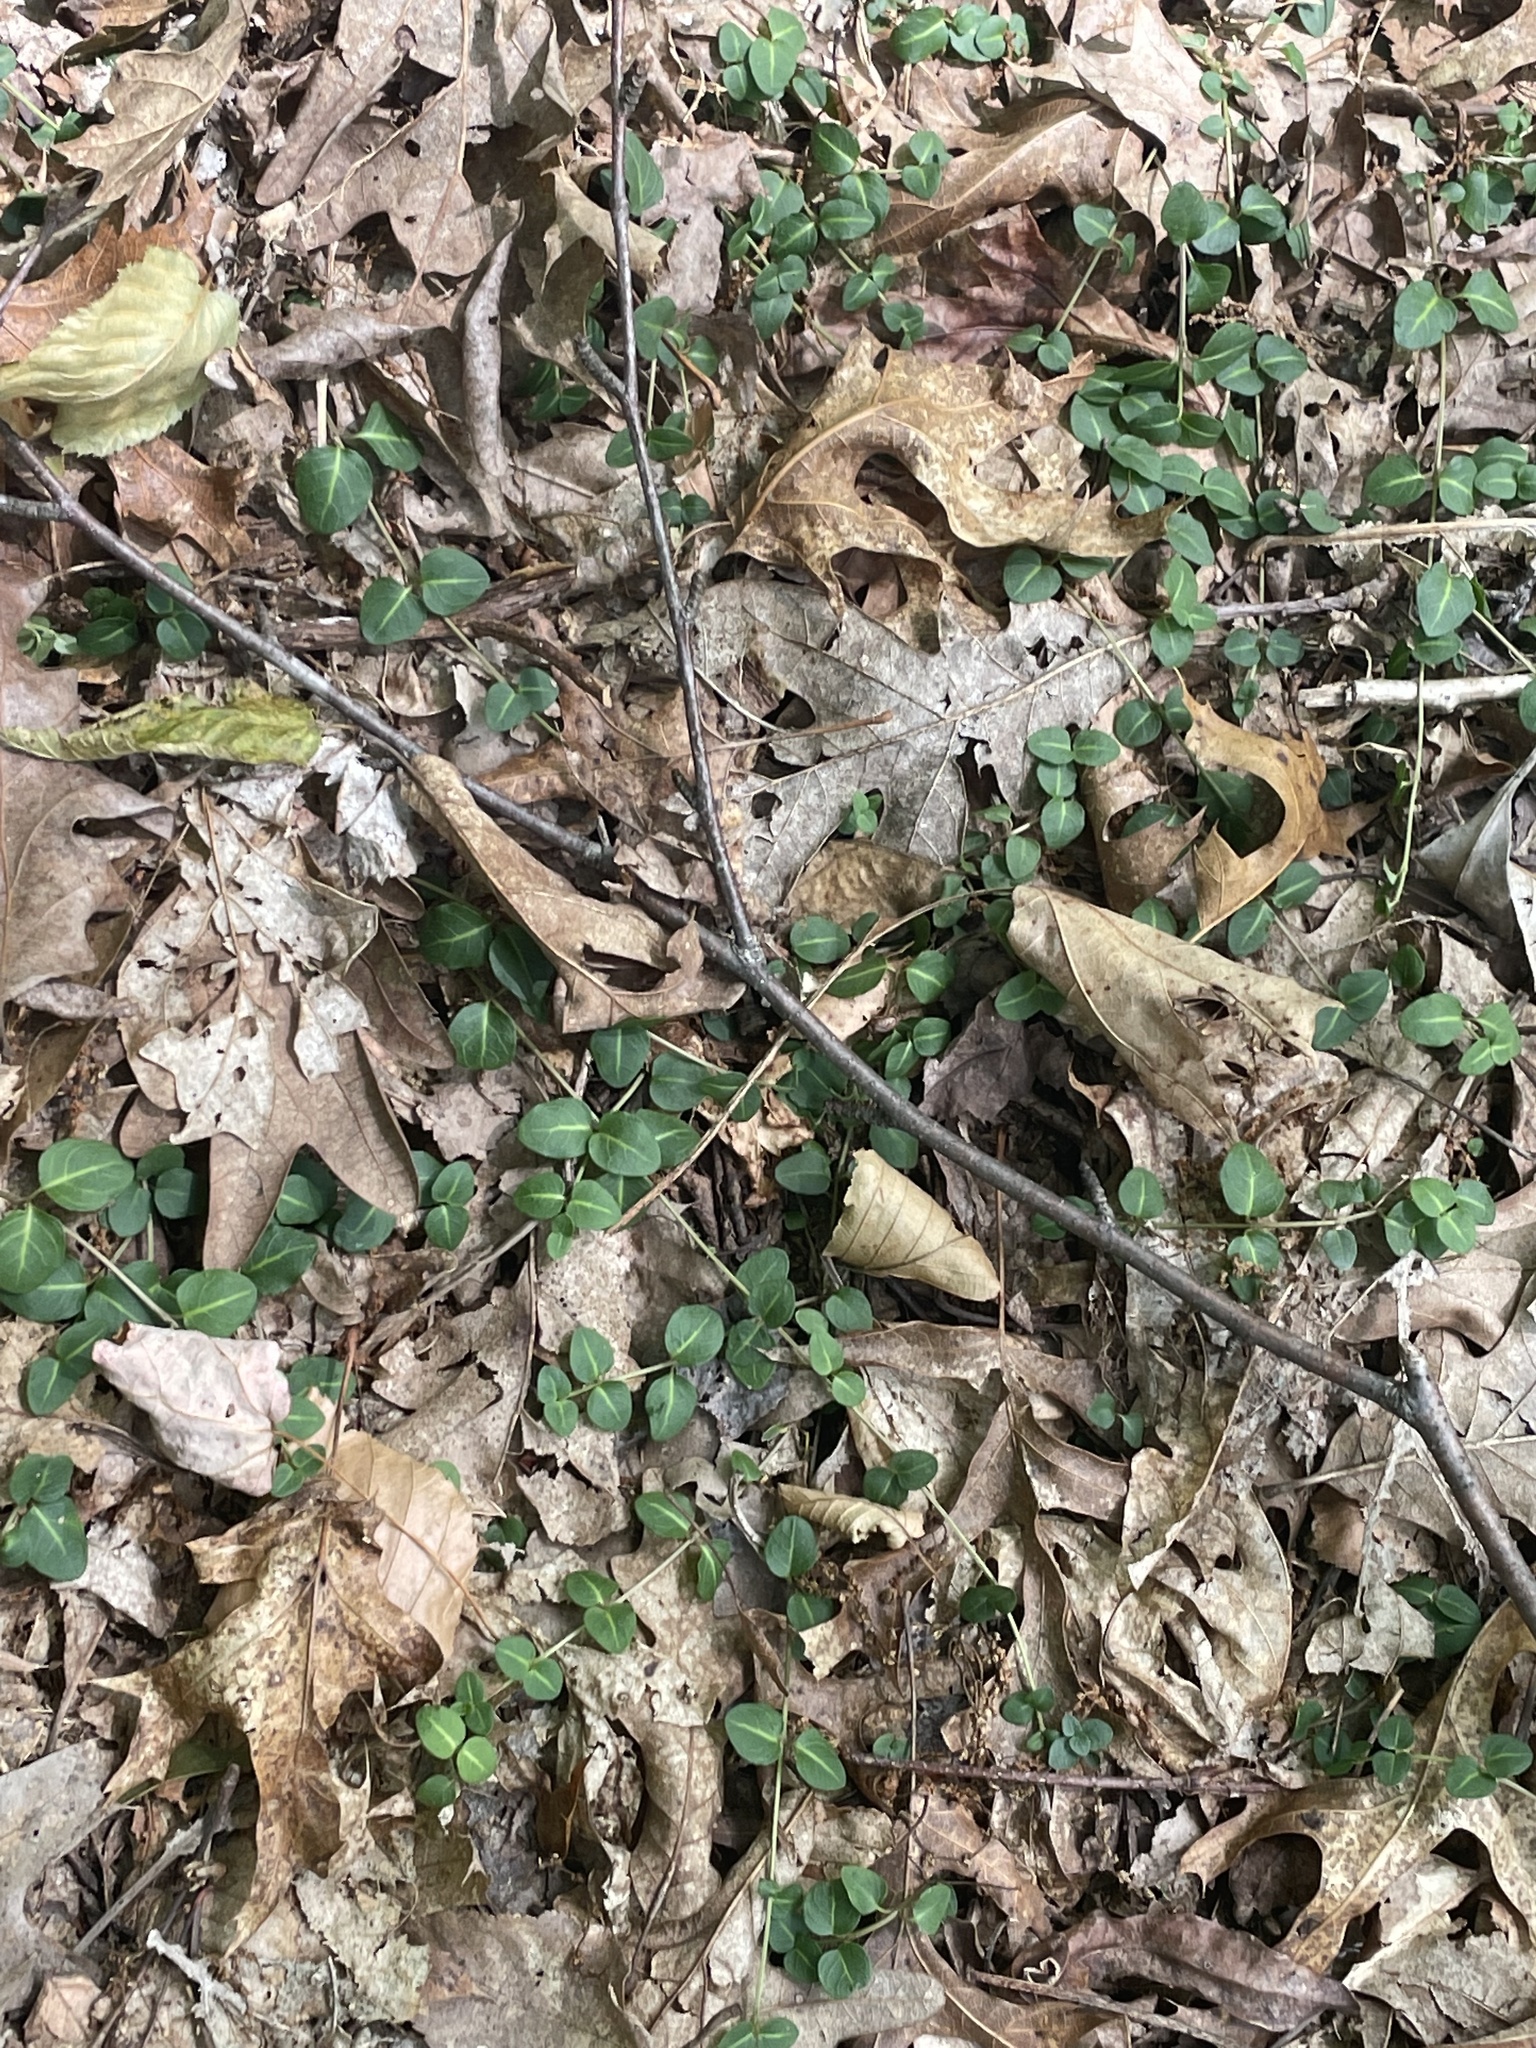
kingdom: Plantae
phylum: Tracheophyta
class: Magnoliopsida
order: Gentianales
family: Rubiaceae
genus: Mitchella
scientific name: Mitchella repens
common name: Partridge-berry
